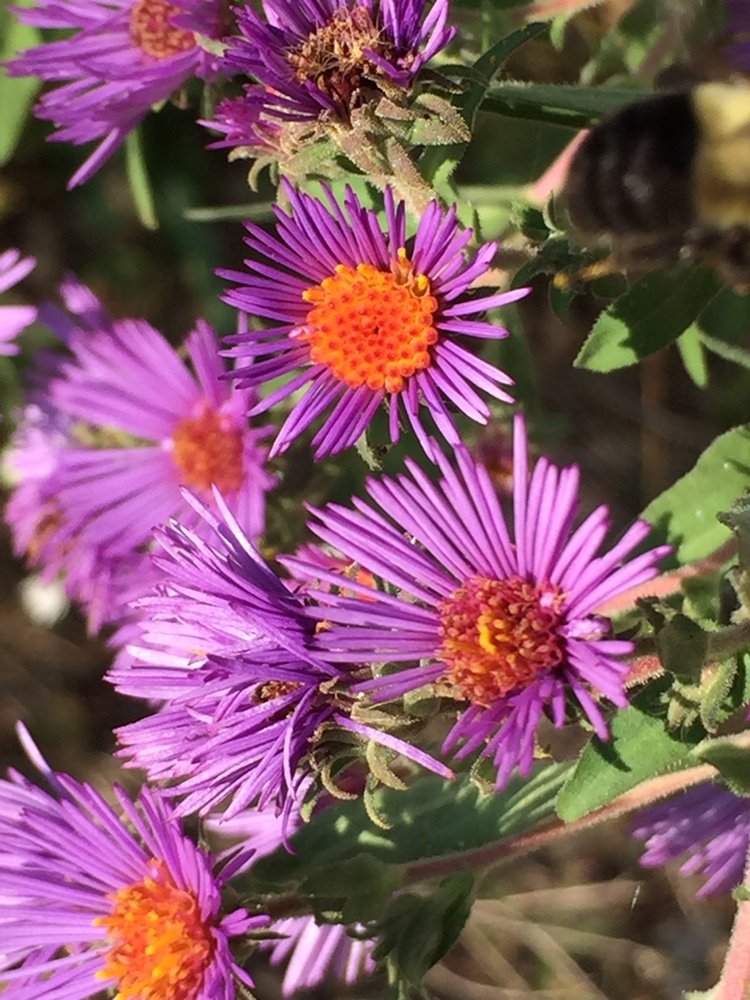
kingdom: Plantae
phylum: Tracheophyta
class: Magnoliopsida
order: Asterales
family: Asteraceae
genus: Symphyotrichum
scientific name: Symphyotrichum novae-angliae
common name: Michaelmas daisy
